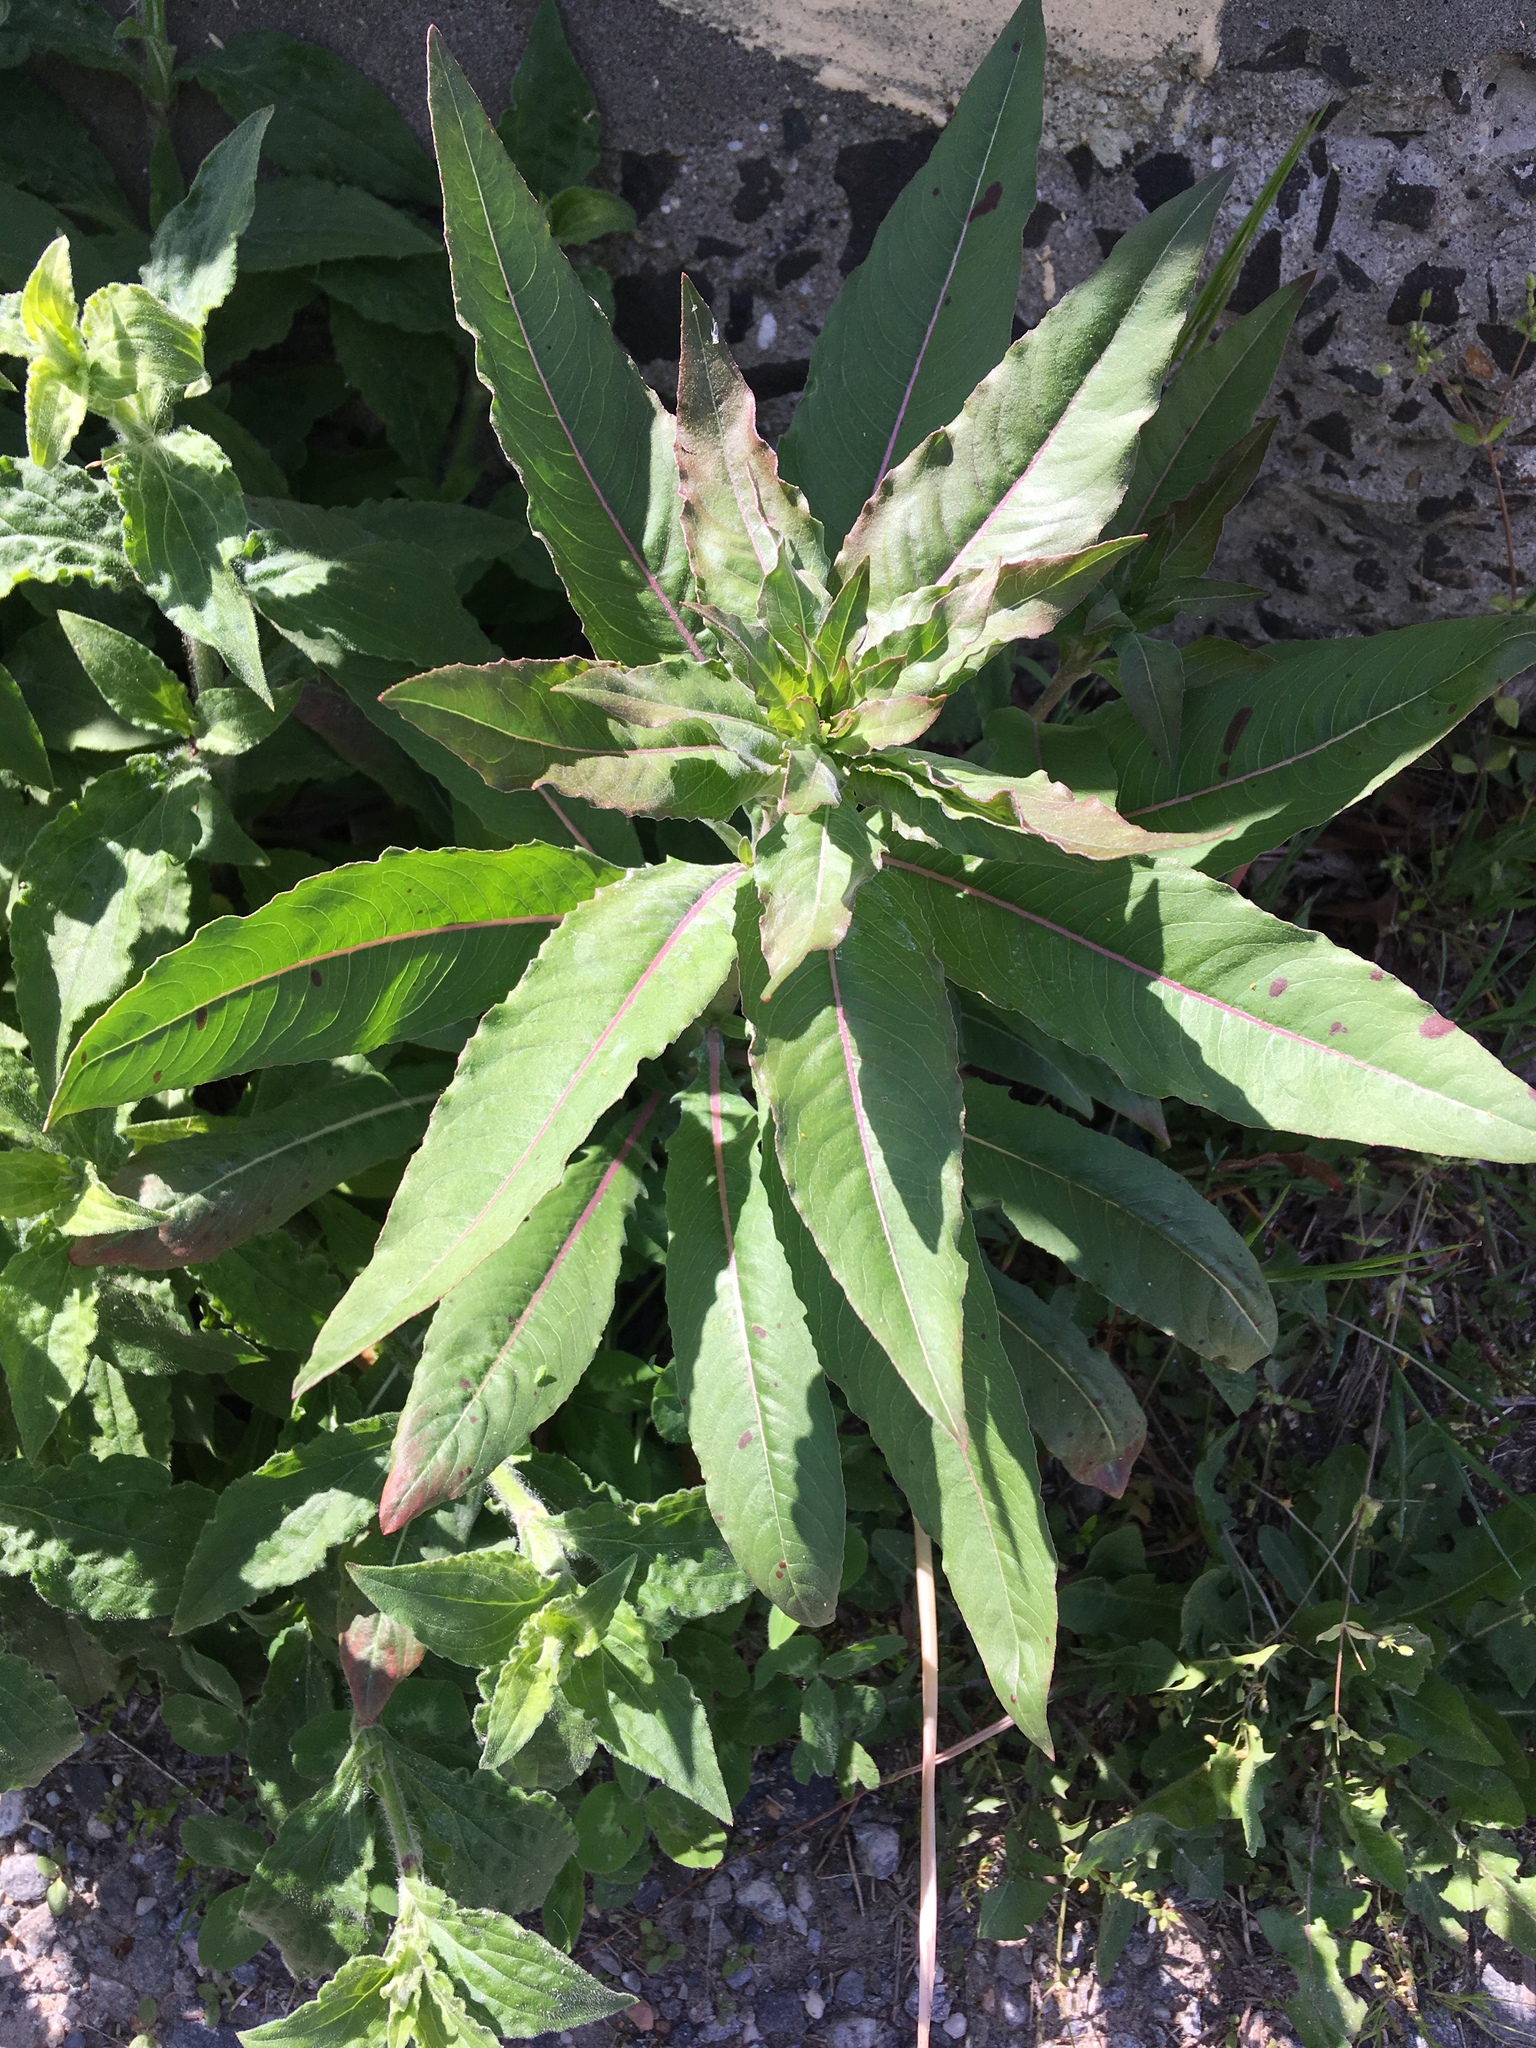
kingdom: Plantae
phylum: Tracheophyta
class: Magnoliopsida
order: Myrtales
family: Onagraceae
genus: Oenothera
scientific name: Oenothera biennis
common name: Common evening-primrose
